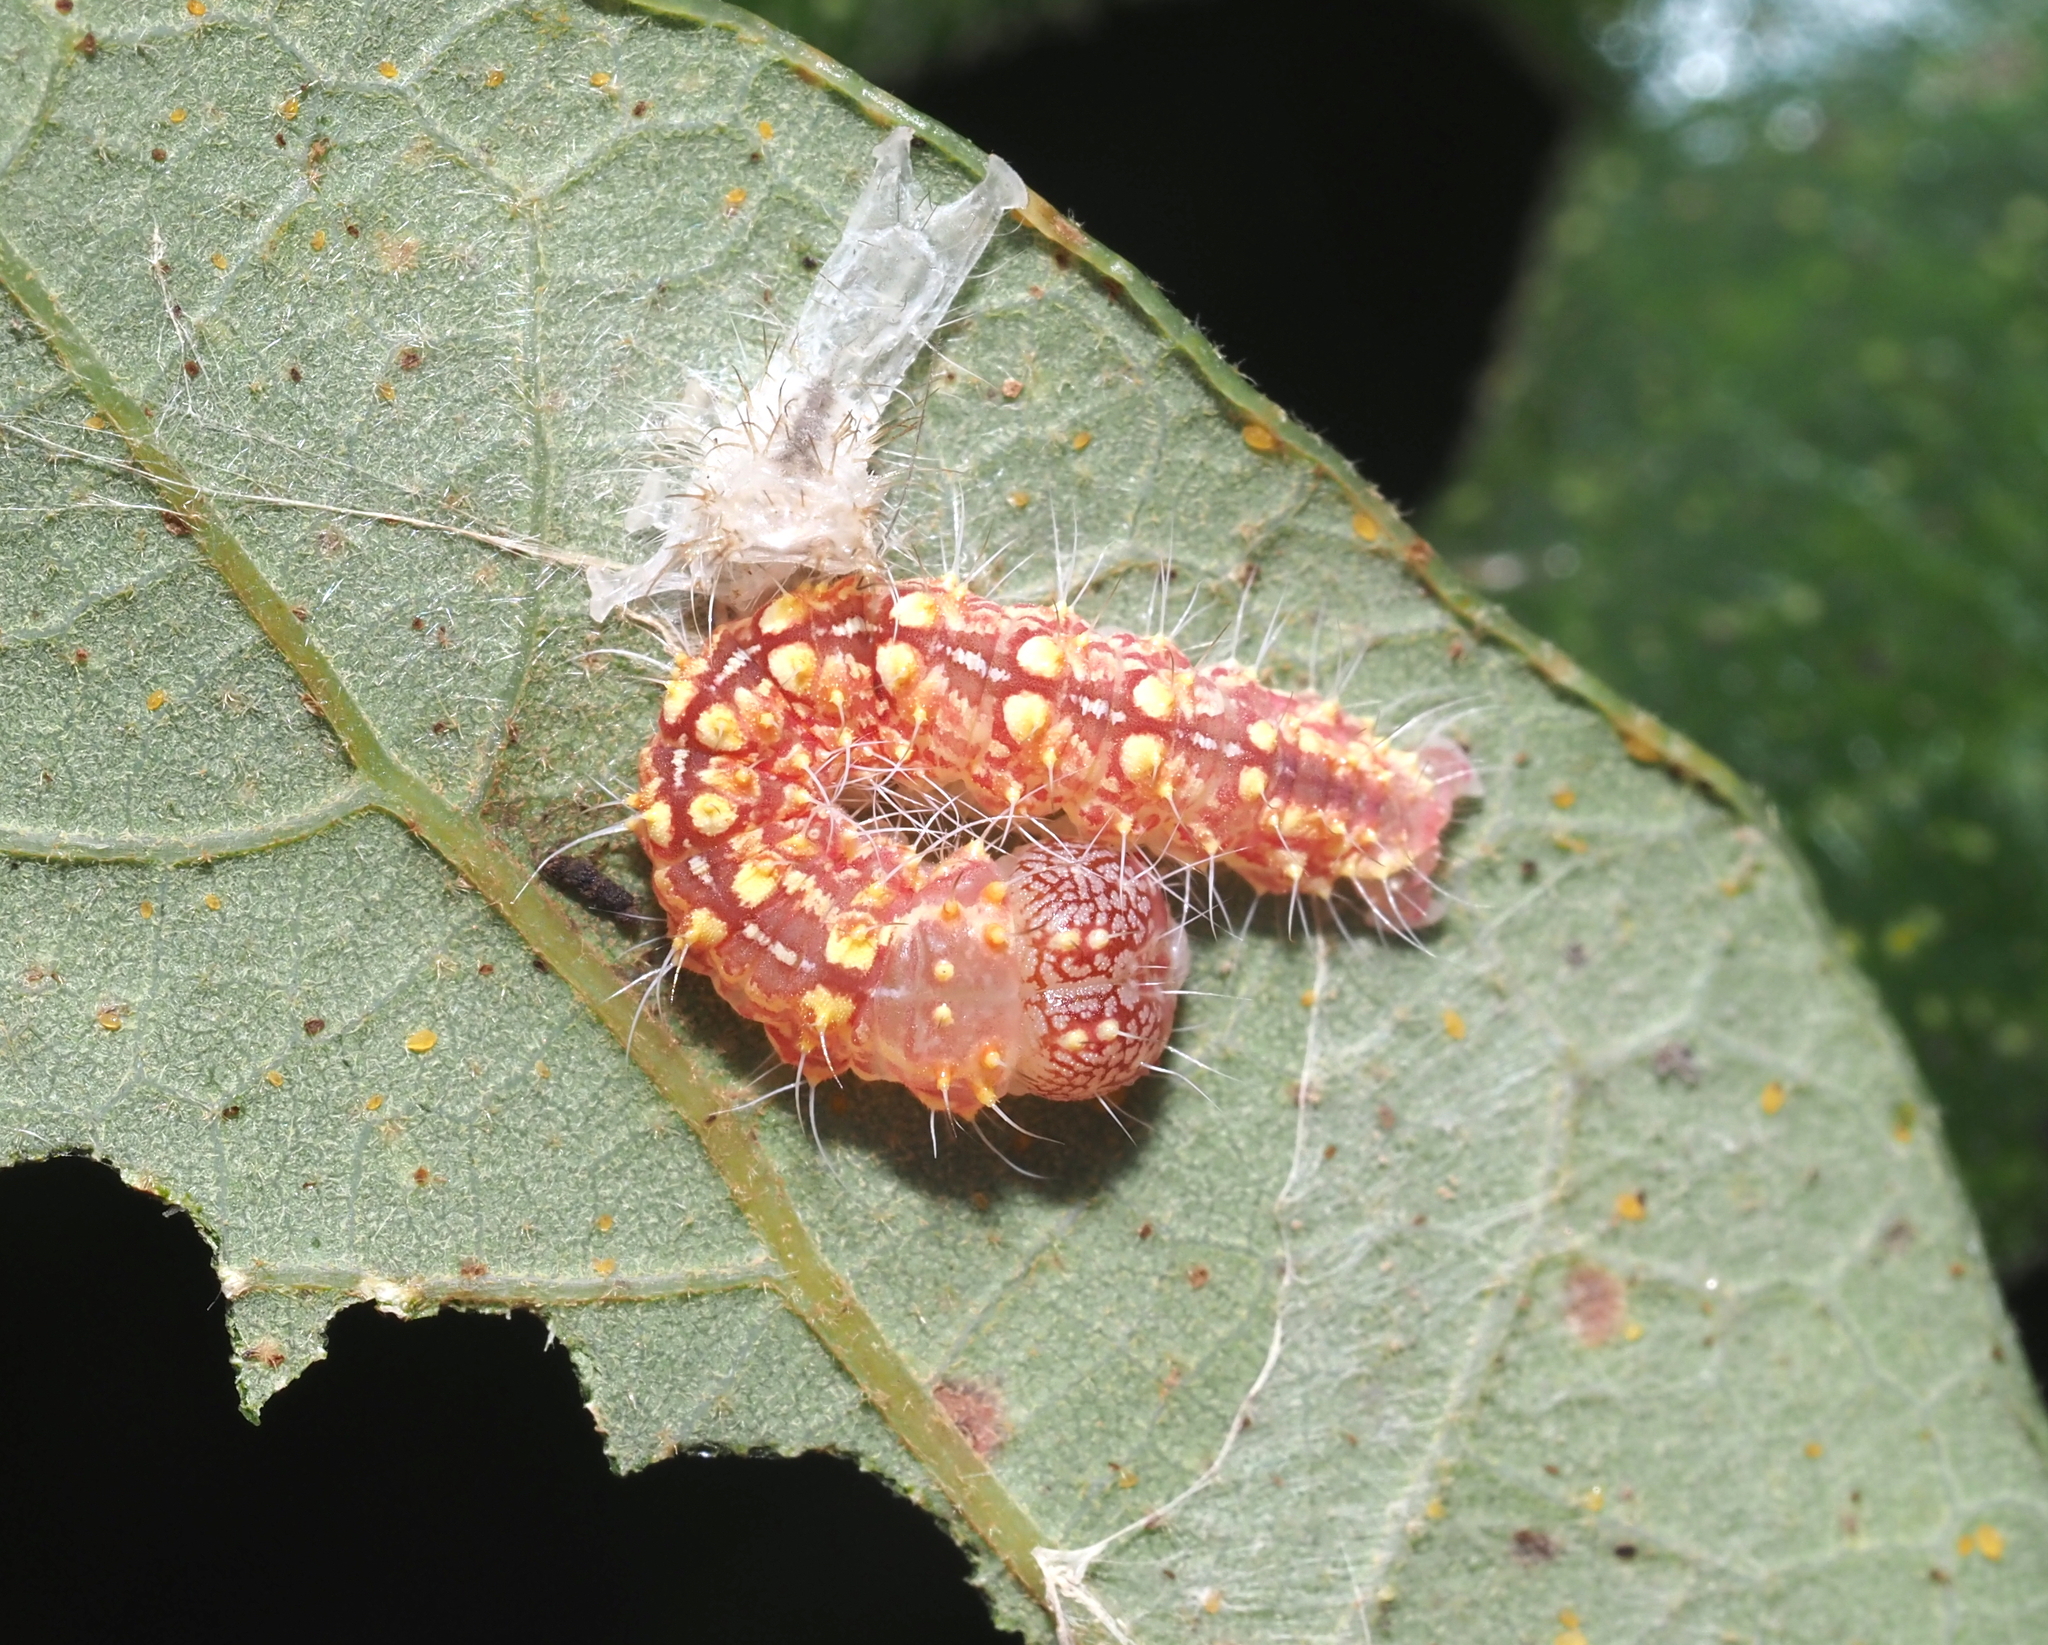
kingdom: Animalia
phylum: Arthropoda
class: Insecta
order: Lepidoptera
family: Noctuidae
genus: Acronicta
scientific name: Acronicta increta
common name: Eclipsed oak dagger
